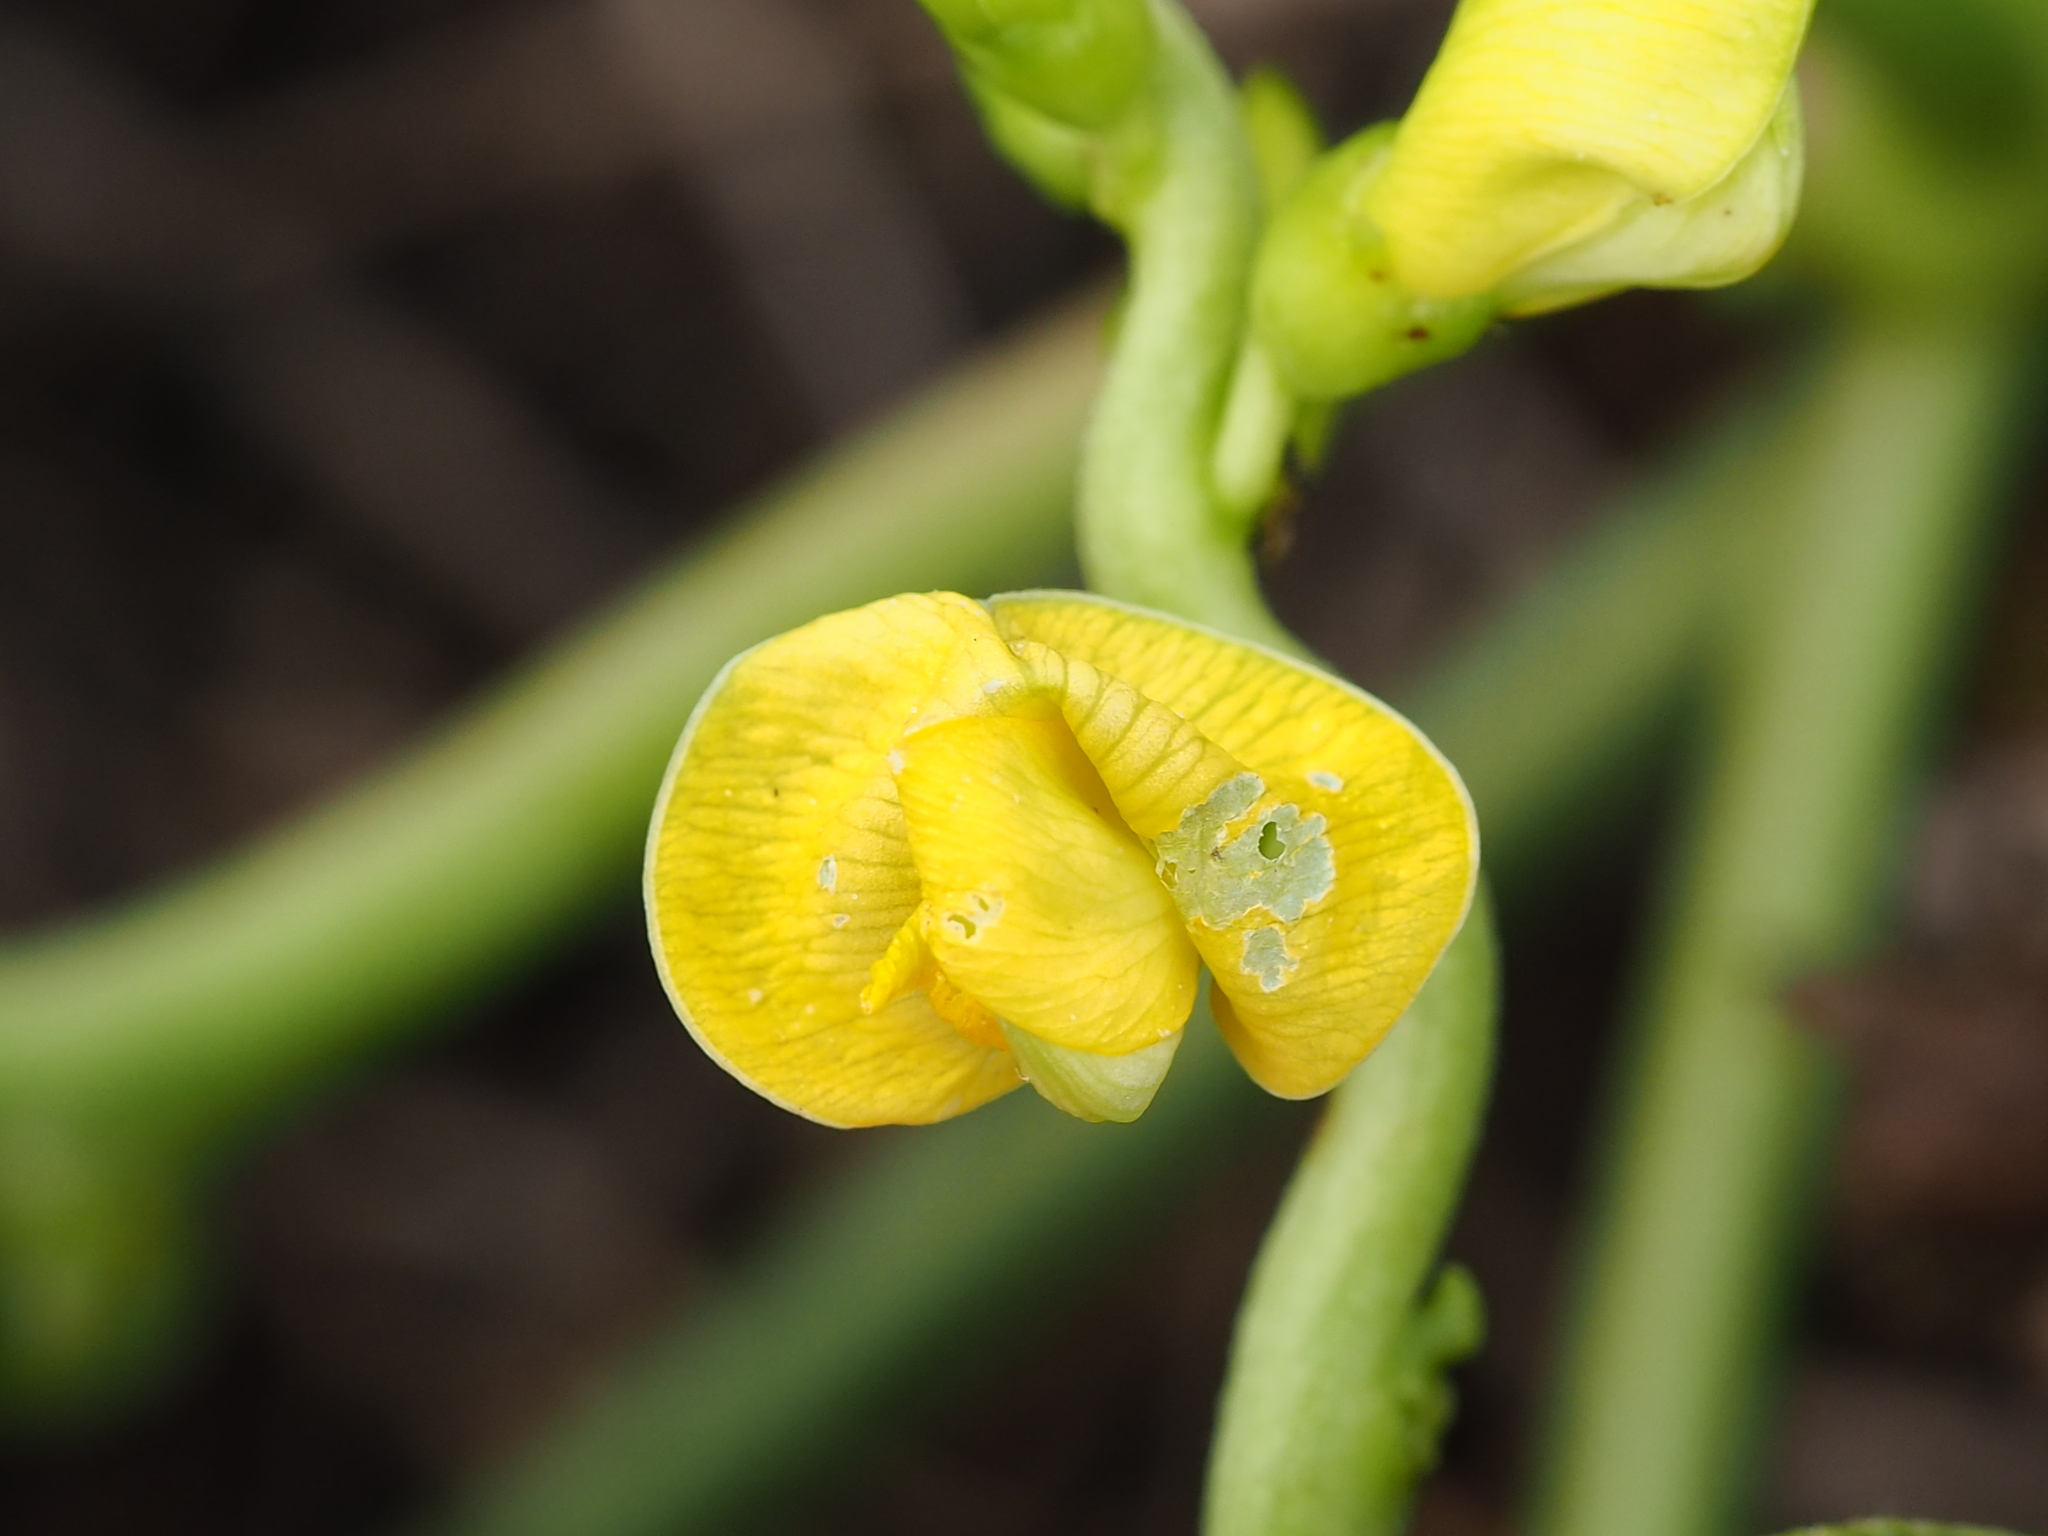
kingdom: Plantae
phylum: Tracheophyta
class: Magnoliopsida
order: Fabales
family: Fabaceae
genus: Vigna
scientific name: Vigna marina
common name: Dune-bean
